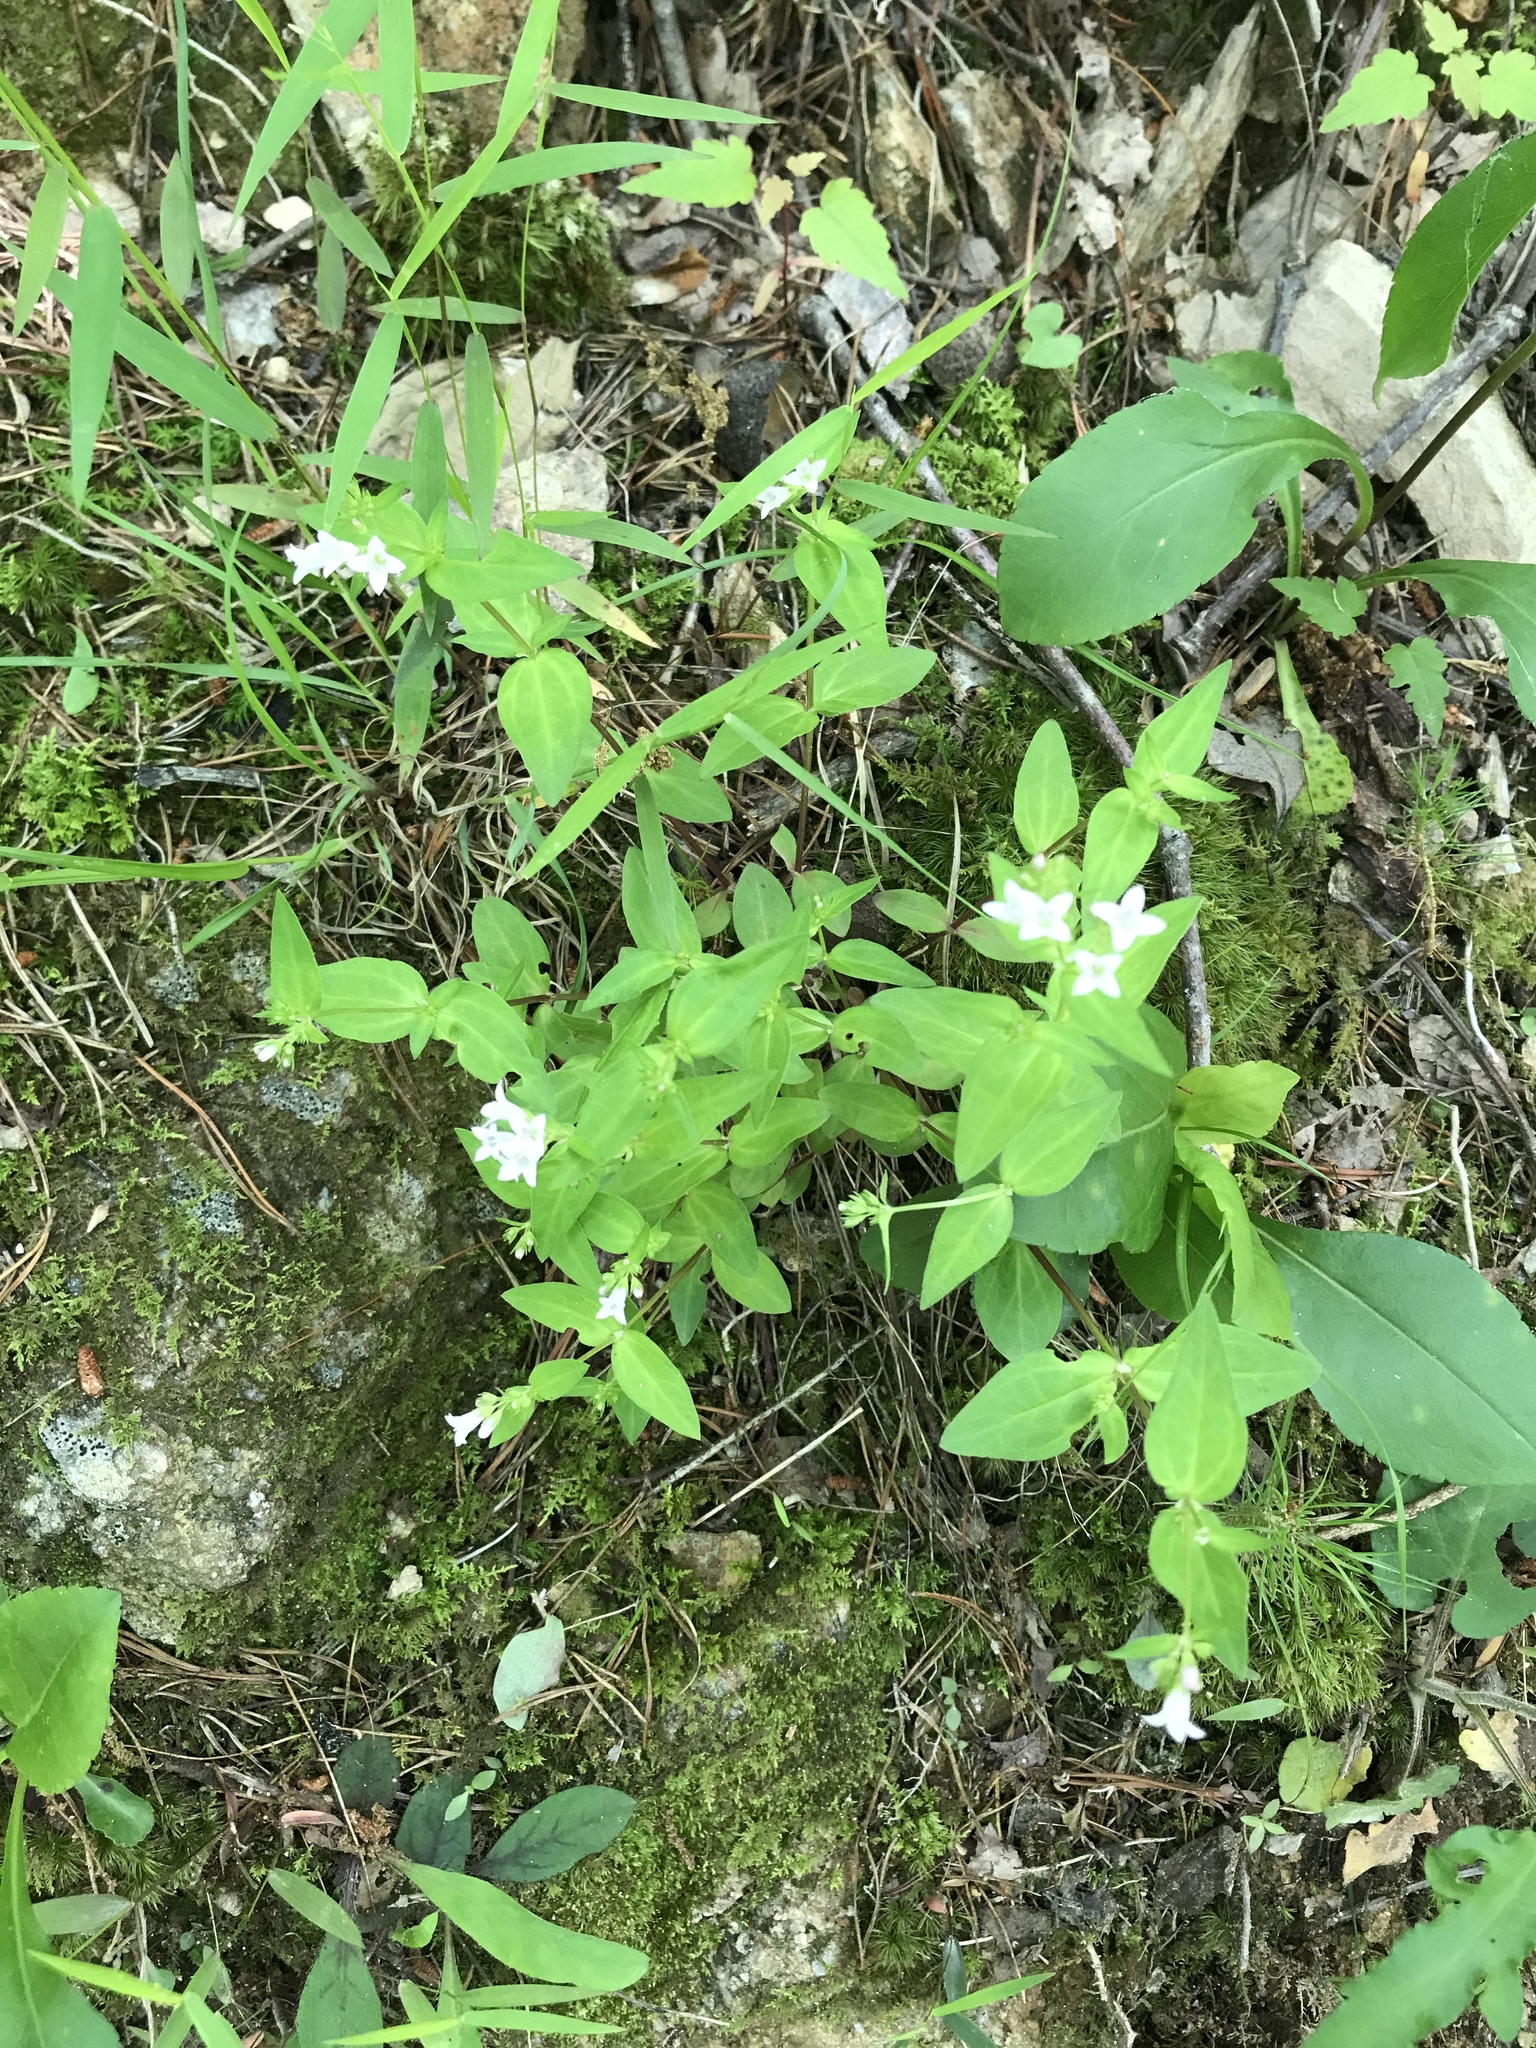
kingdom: Plantae
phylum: Tracheophyta
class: Magnoliopsida
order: Gentianales
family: Rubiaceae
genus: Houstonia
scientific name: Houstonia purpurea
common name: Summer bluet
